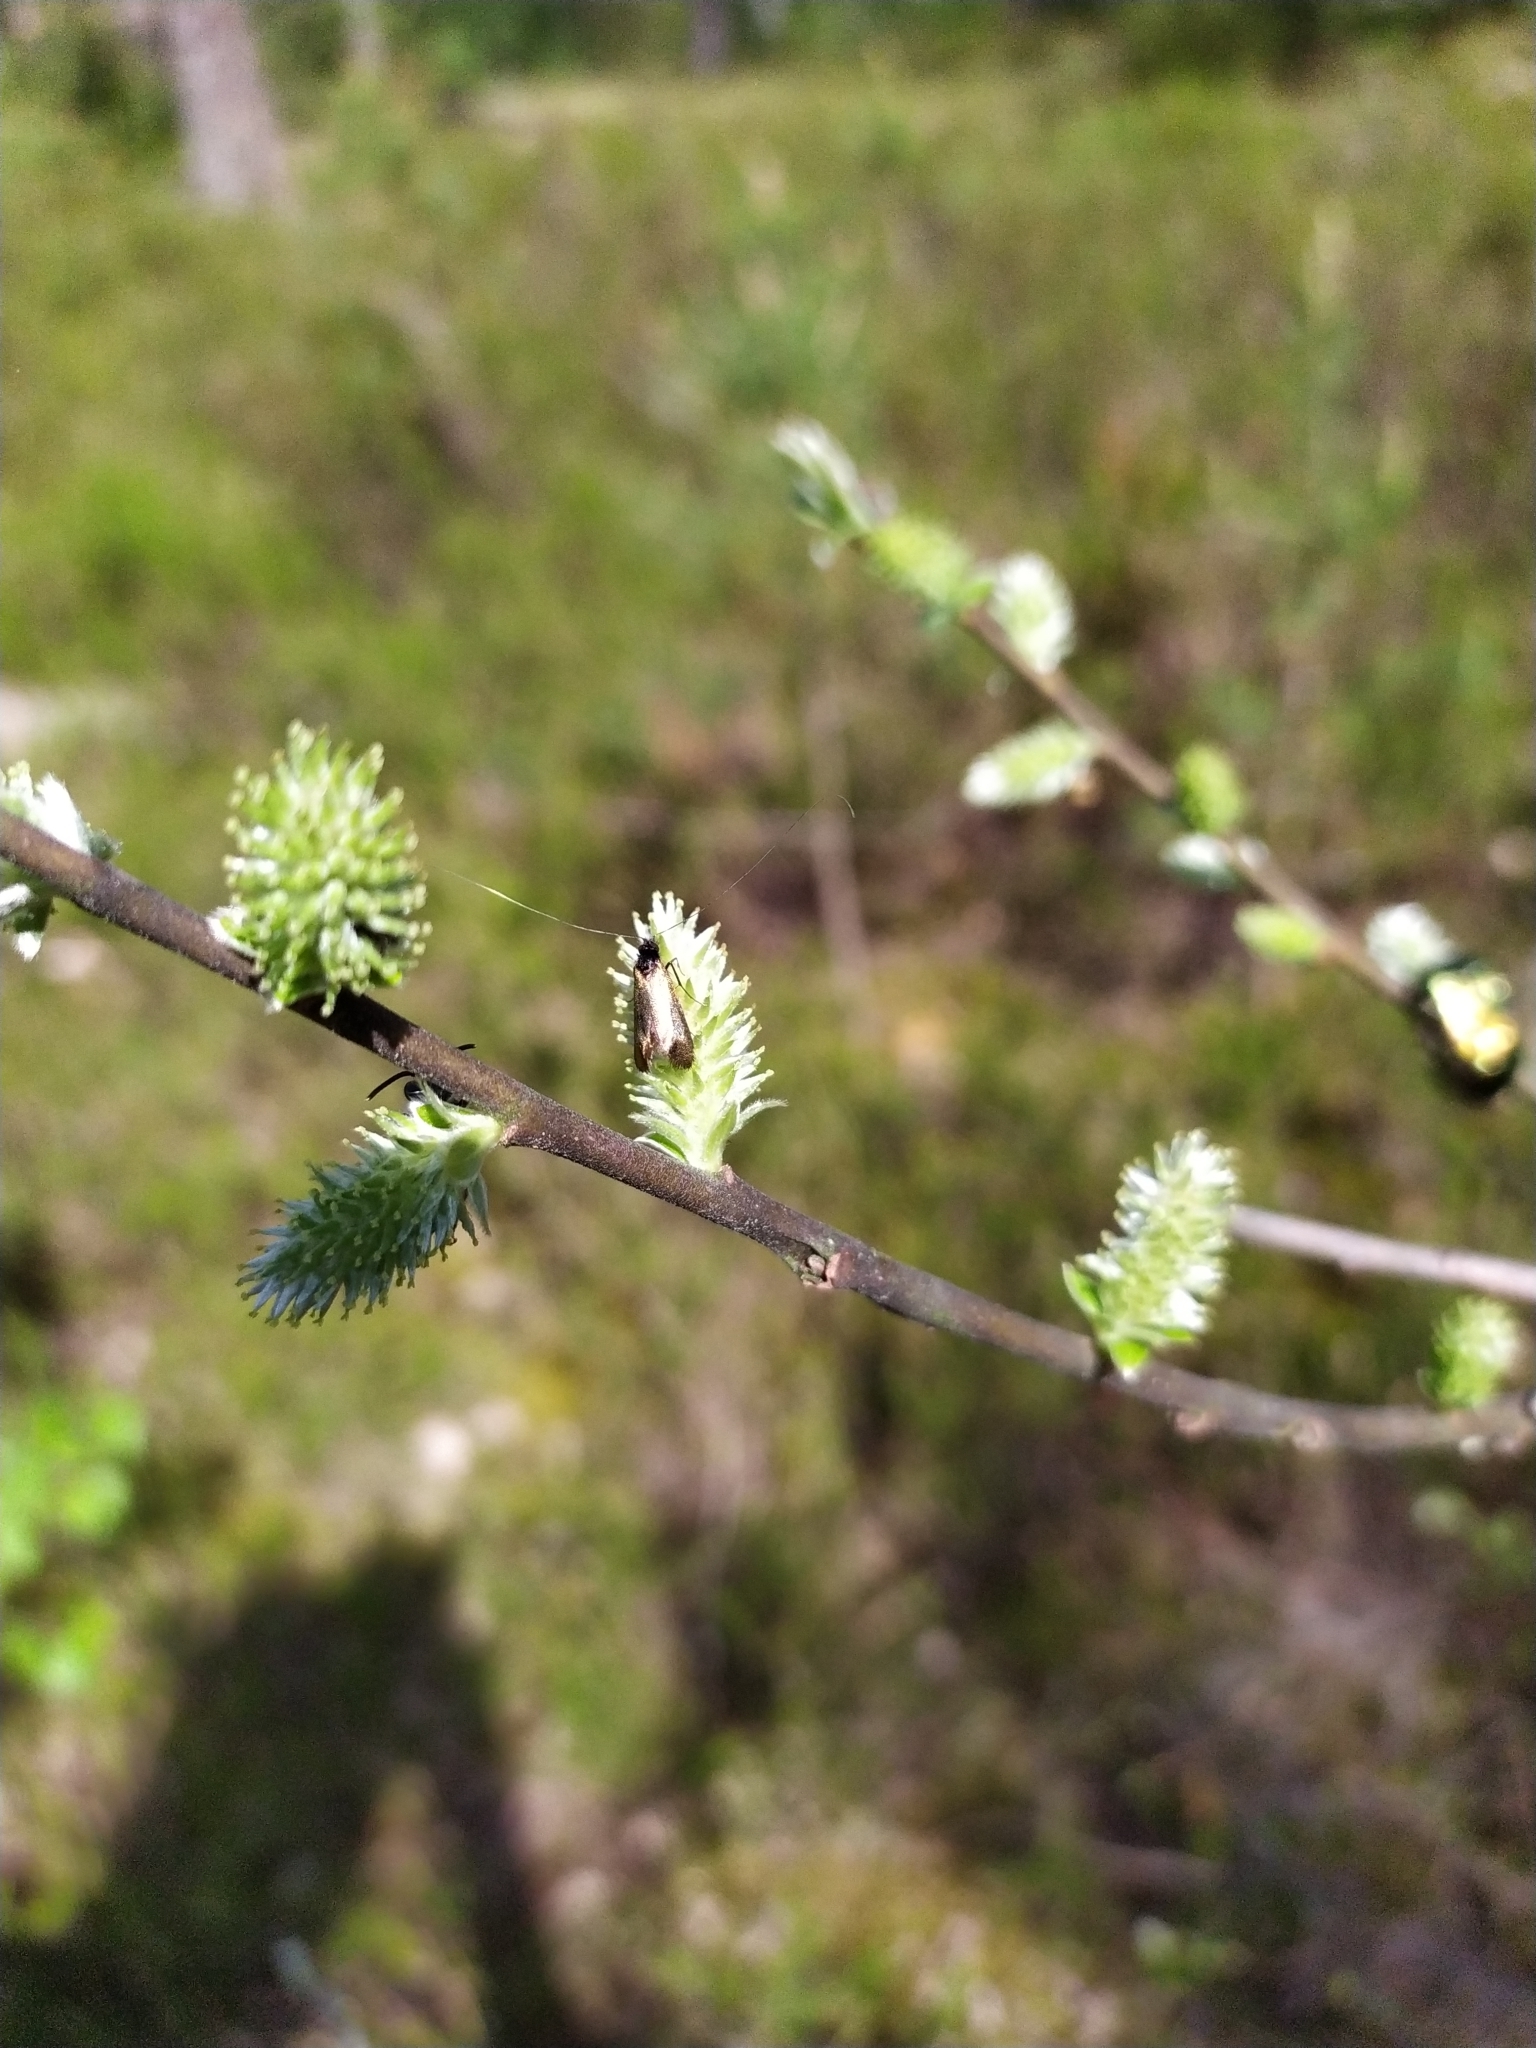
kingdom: Animalia
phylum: Arthropoda
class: Insecta
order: Lepidoptera
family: Adelidae
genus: Adela
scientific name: Adela cuprella
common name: Early long-horn
